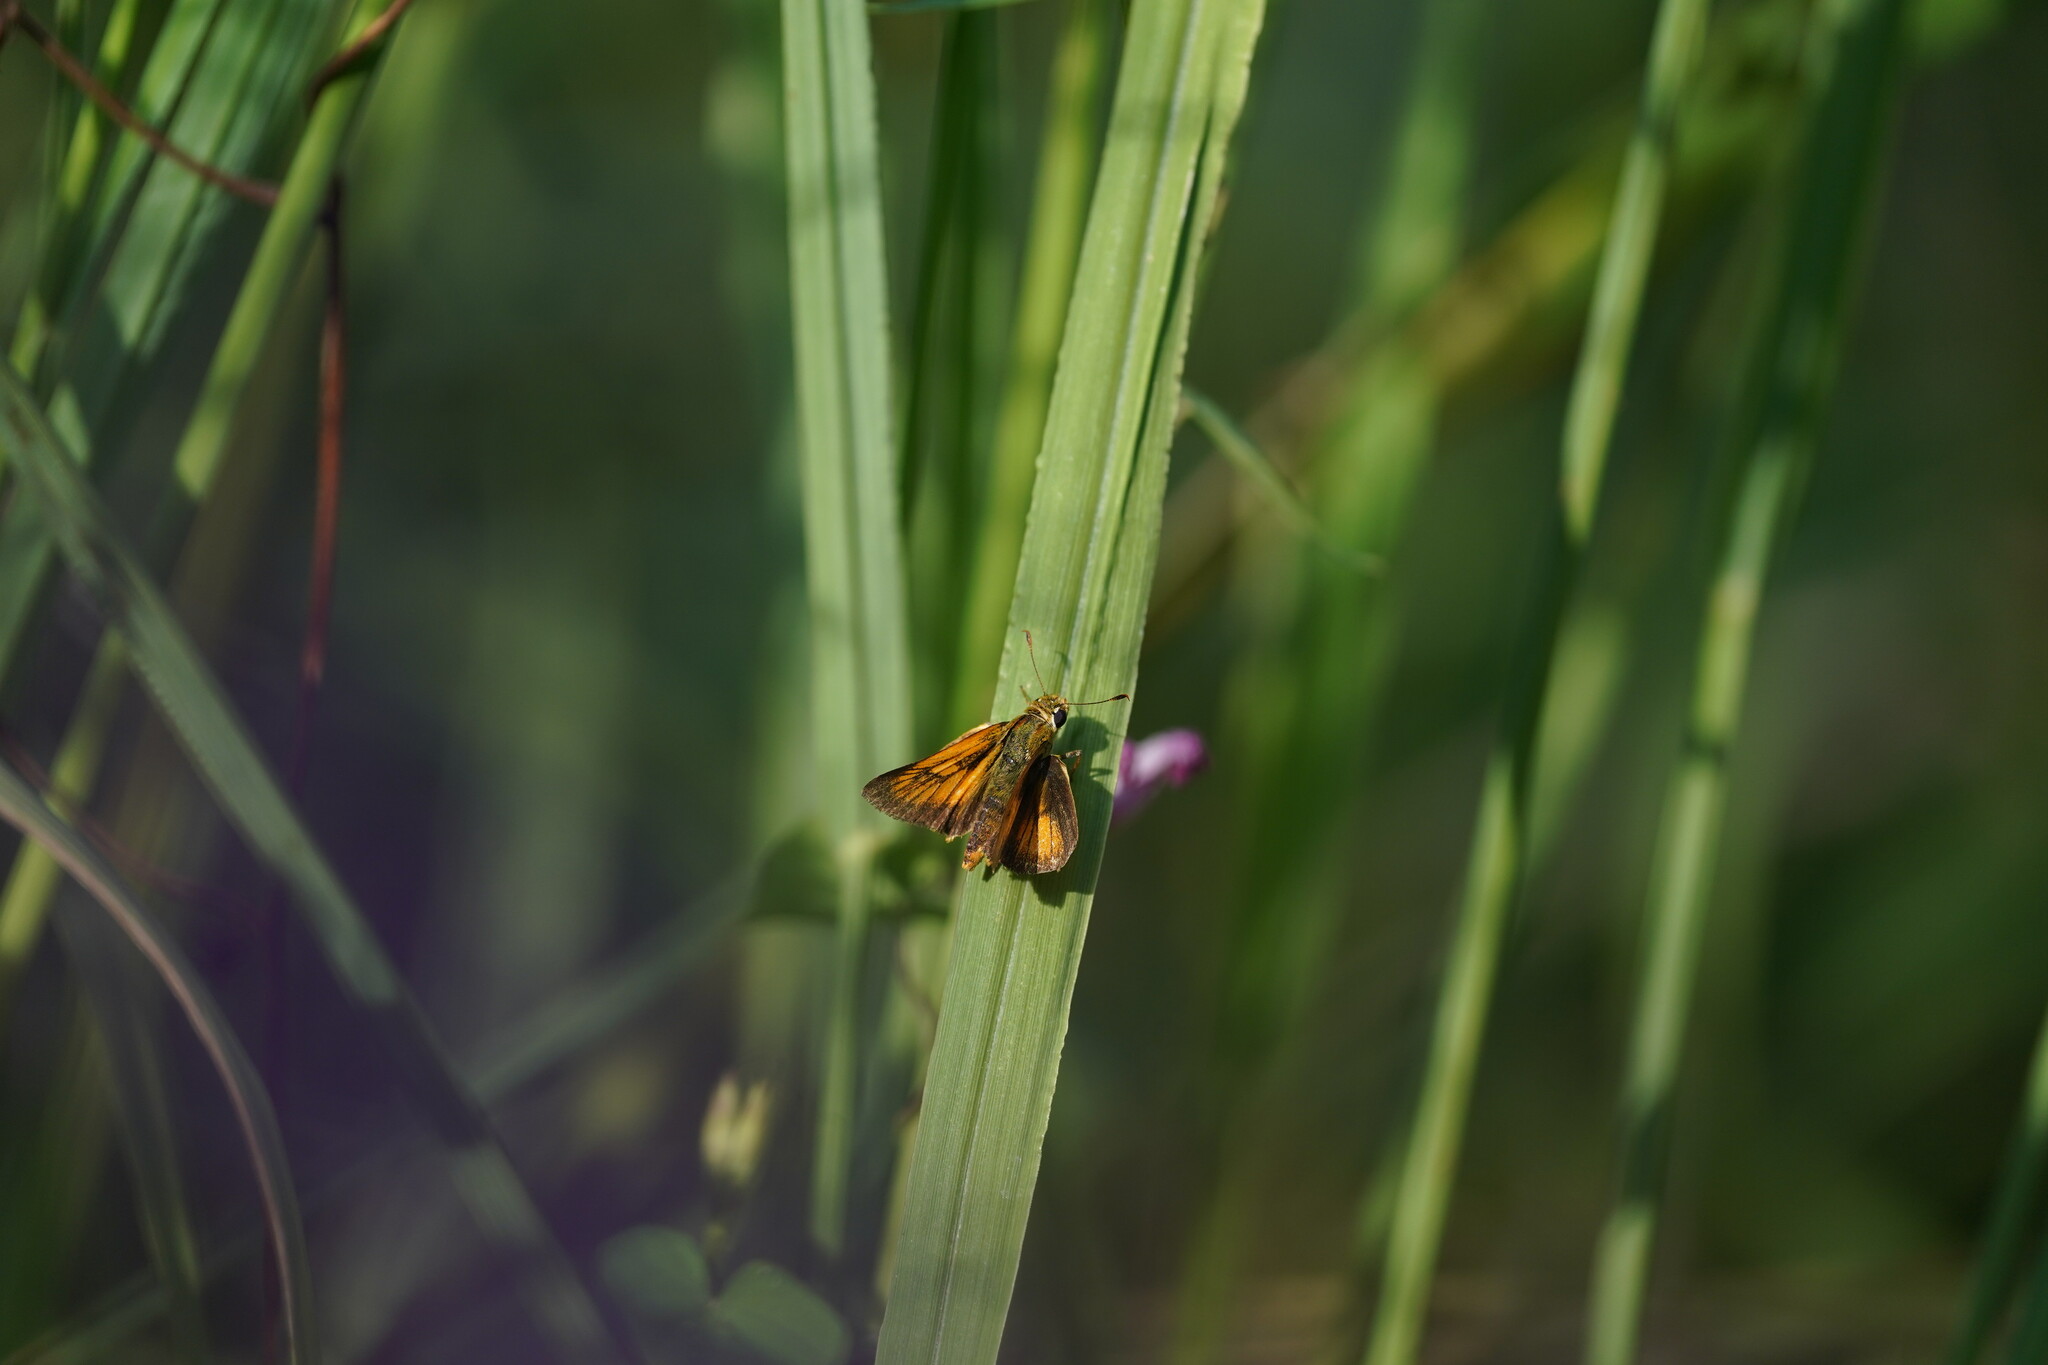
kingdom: Animalia
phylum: Arthropoda
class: Insecta
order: Lepidoptera
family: Hesperiidae
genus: Atrytone
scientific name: Atrytone delaware
